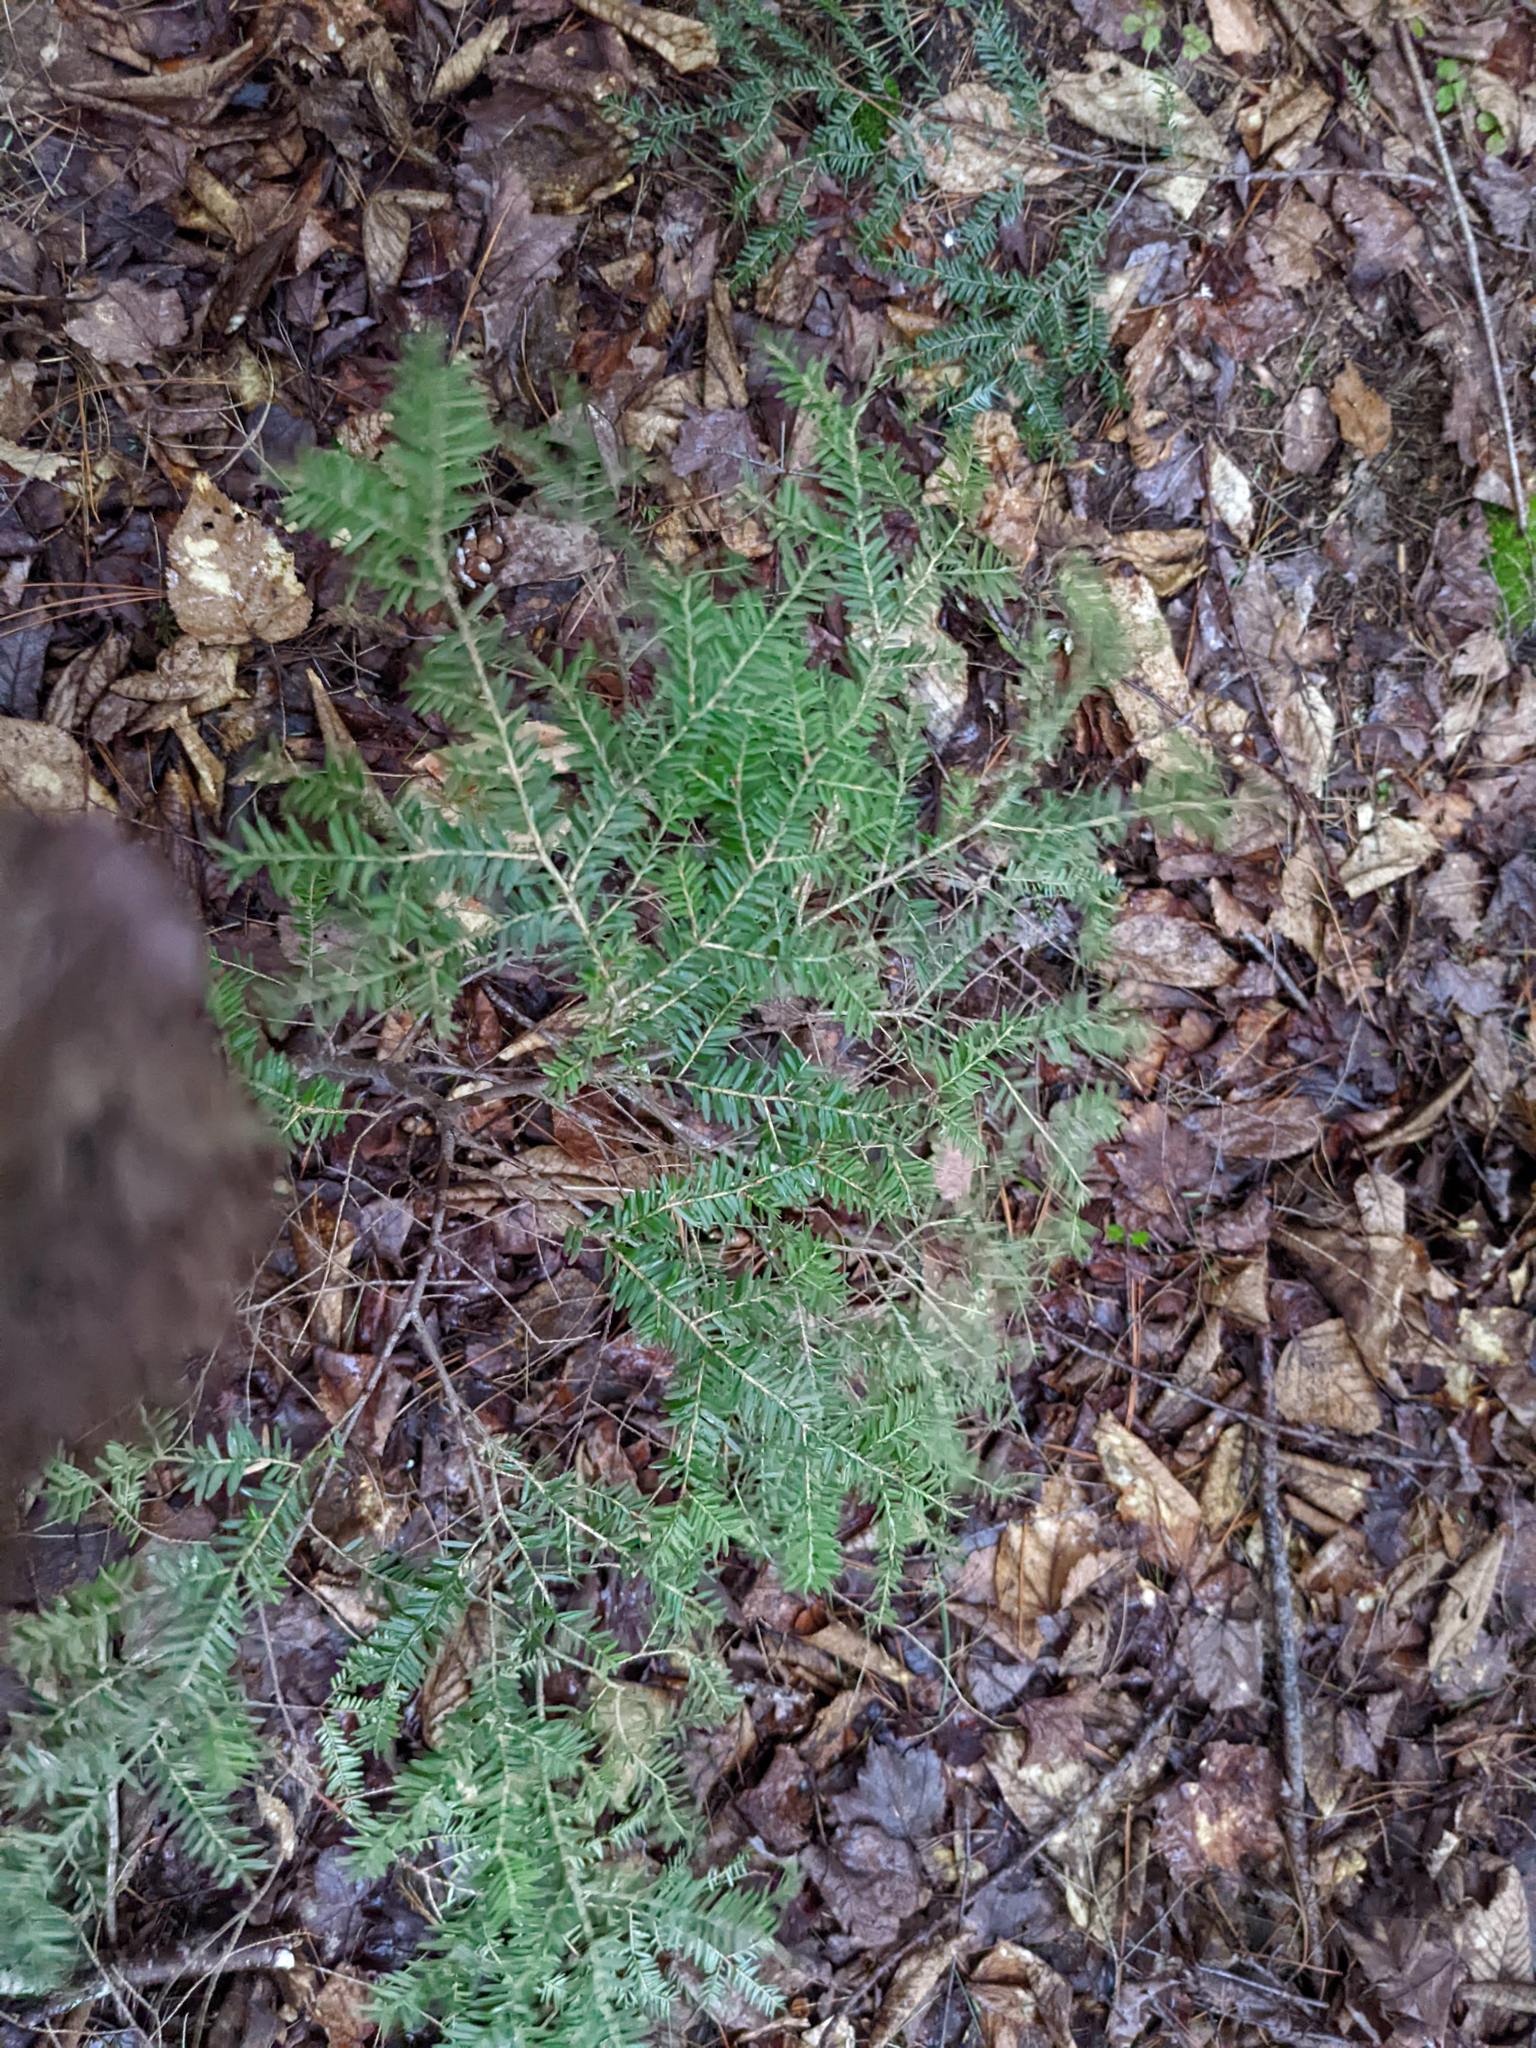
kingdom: Plantae
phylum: Tracheophyta
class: Pinopsida
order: Pinales
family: Pinaceae
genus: Tsuga
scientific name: Tsuga canadensis
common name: Eastern hemlock
